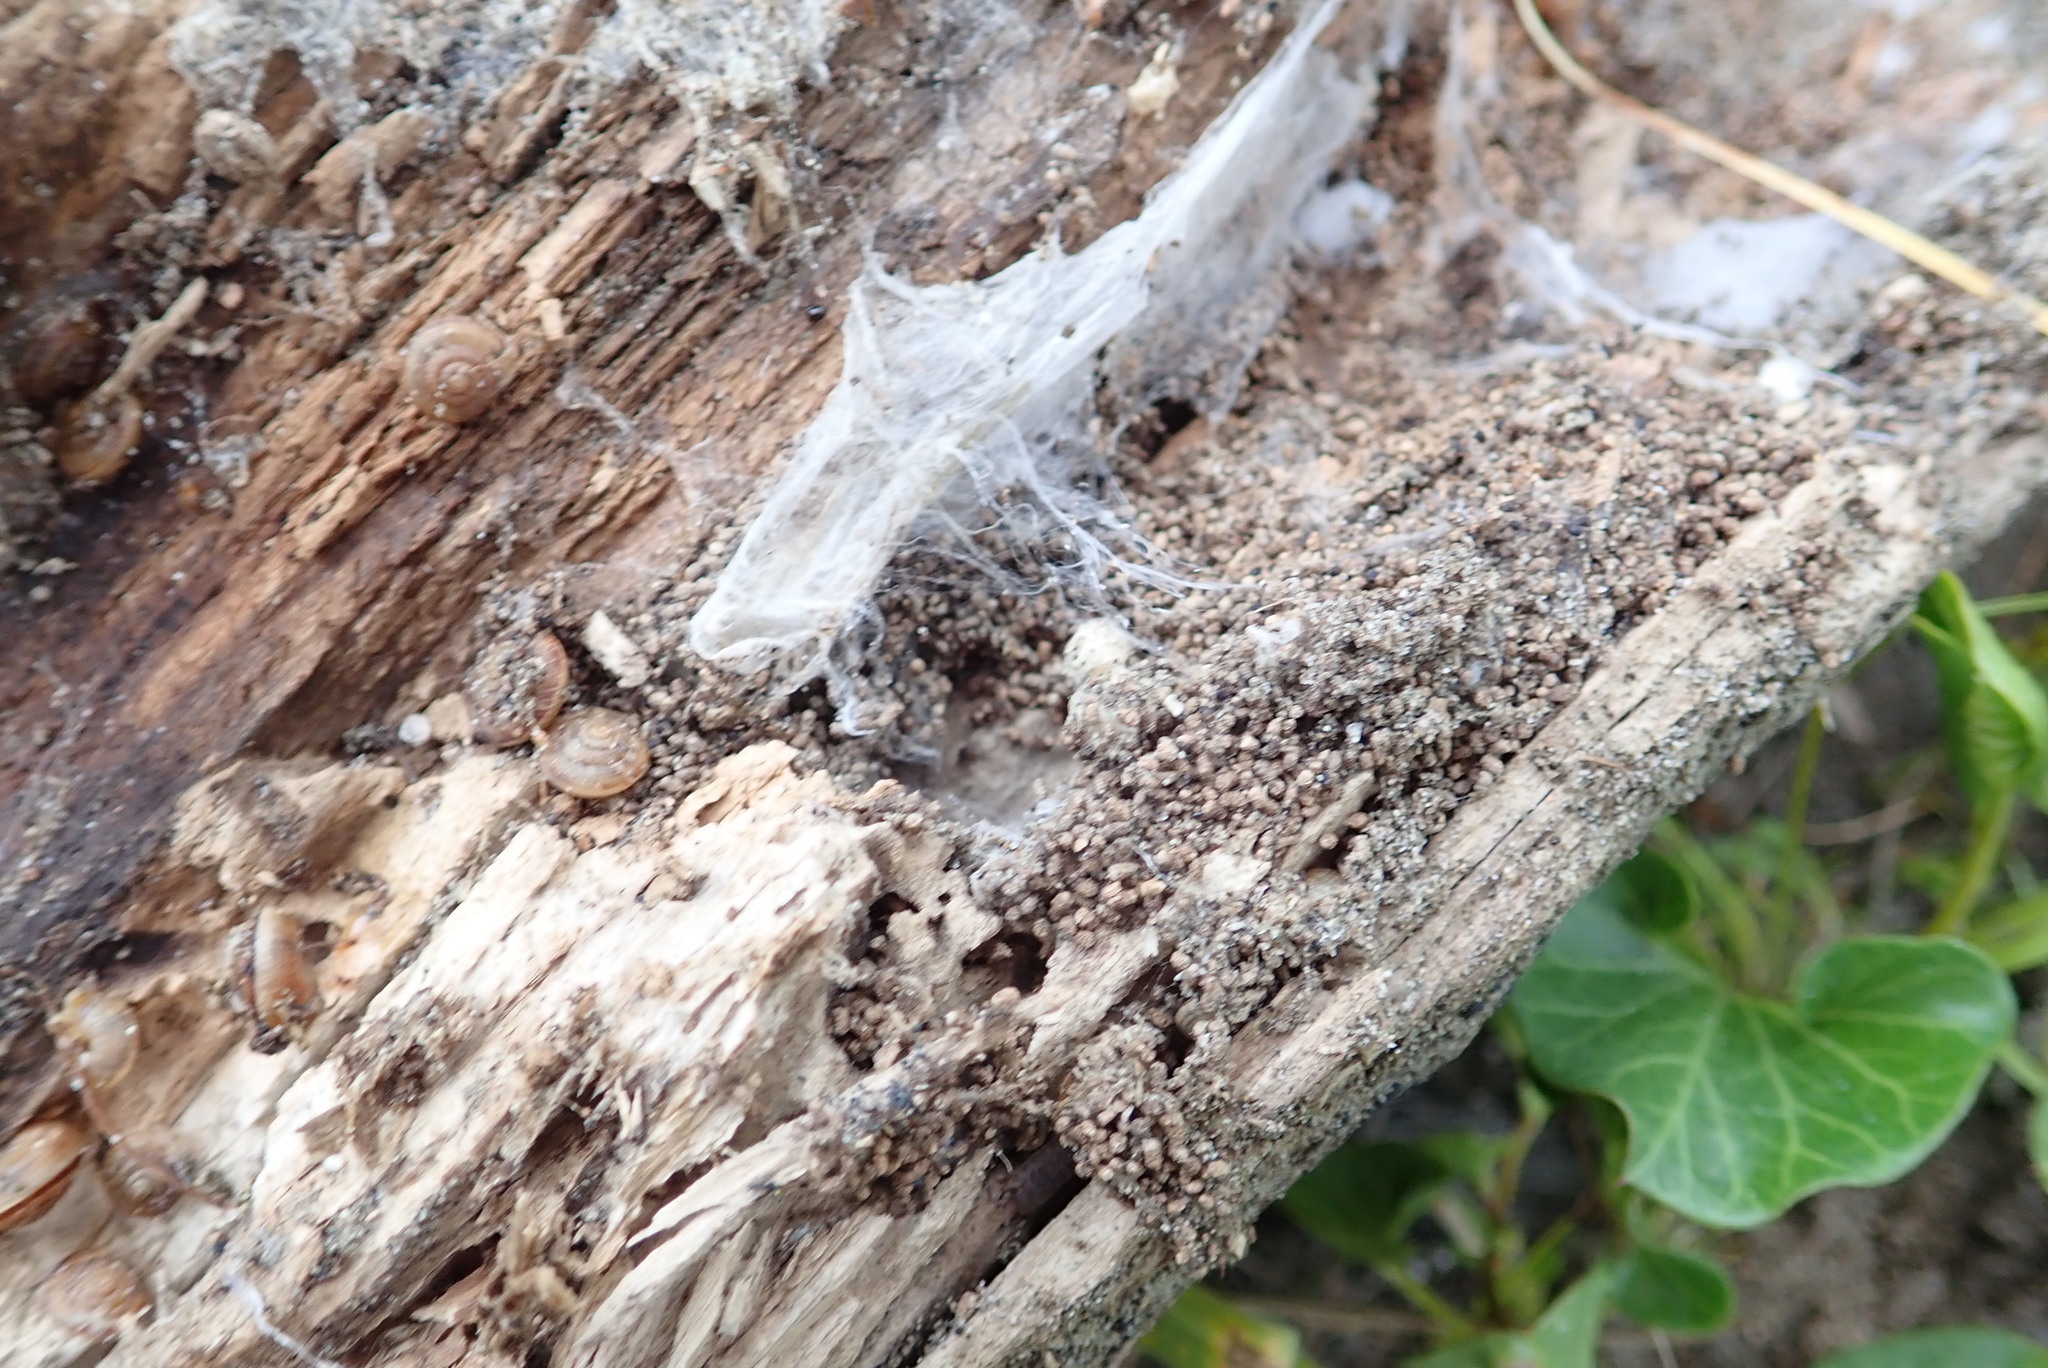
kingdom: Animalia
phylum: Mollusca
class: Gastropoda
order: Stylommatophora
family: Geomitridae
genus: Xeroplexa
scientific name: Xeroplexa intersecta
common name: Wrinkled snail
